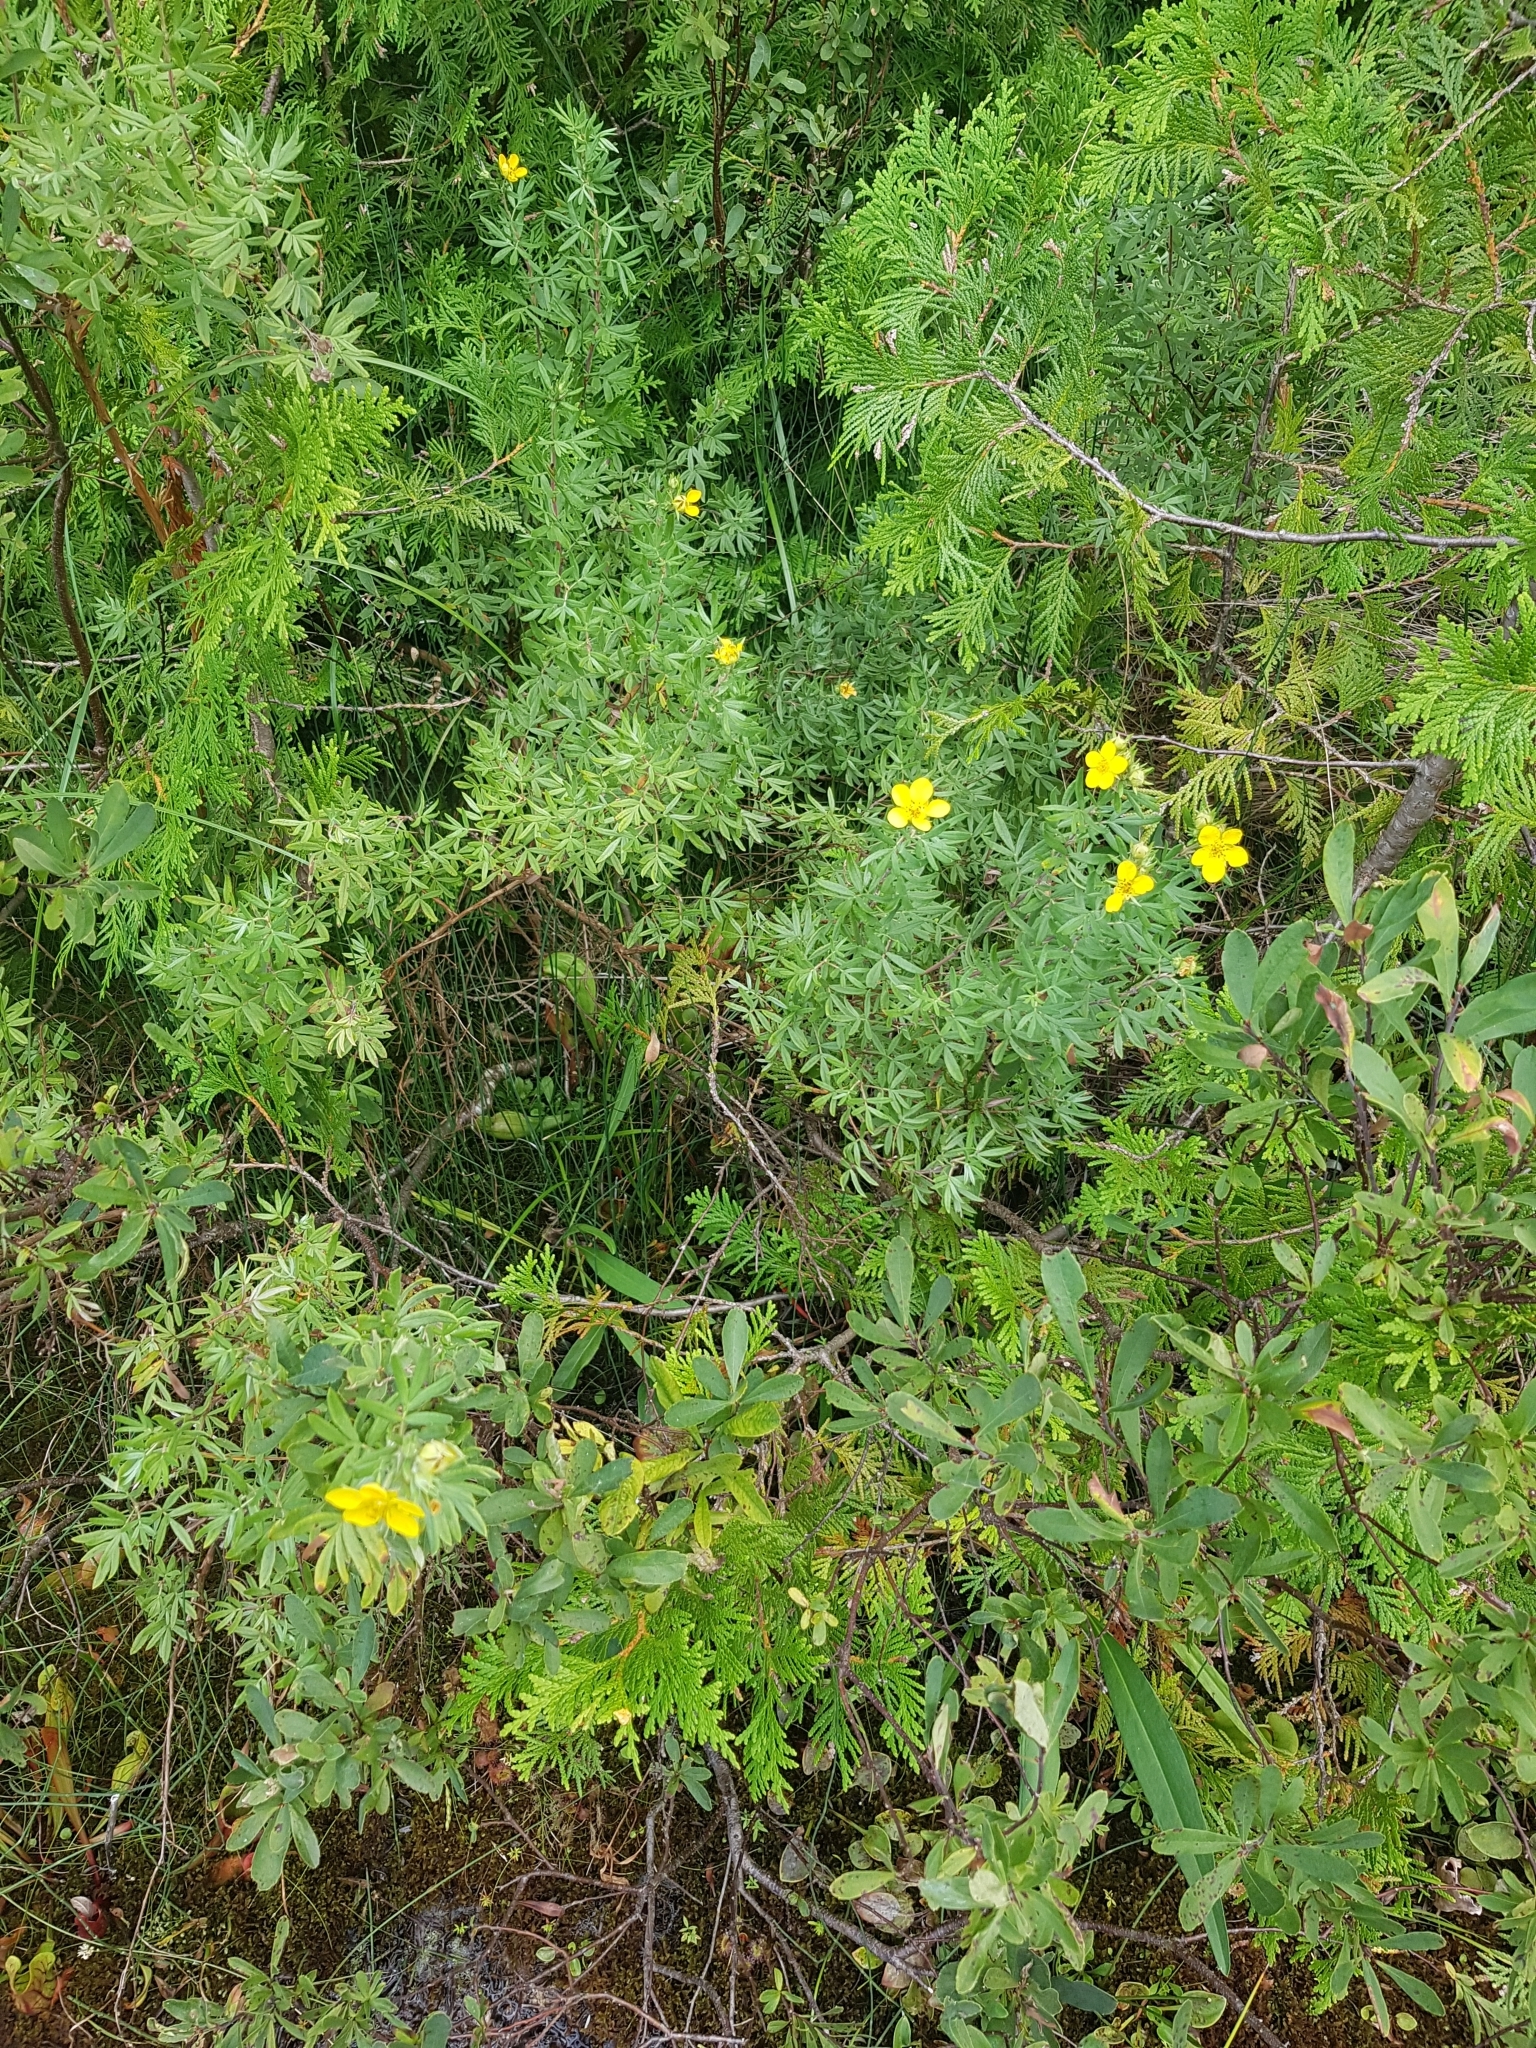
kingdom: Plantae
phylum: Tracheophyta
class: Magnoliopsida
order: Rosales
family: Rosaceae
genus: Dasiphora
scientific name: Dasiphora fruticosa
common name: Shrubby cinquefoil
